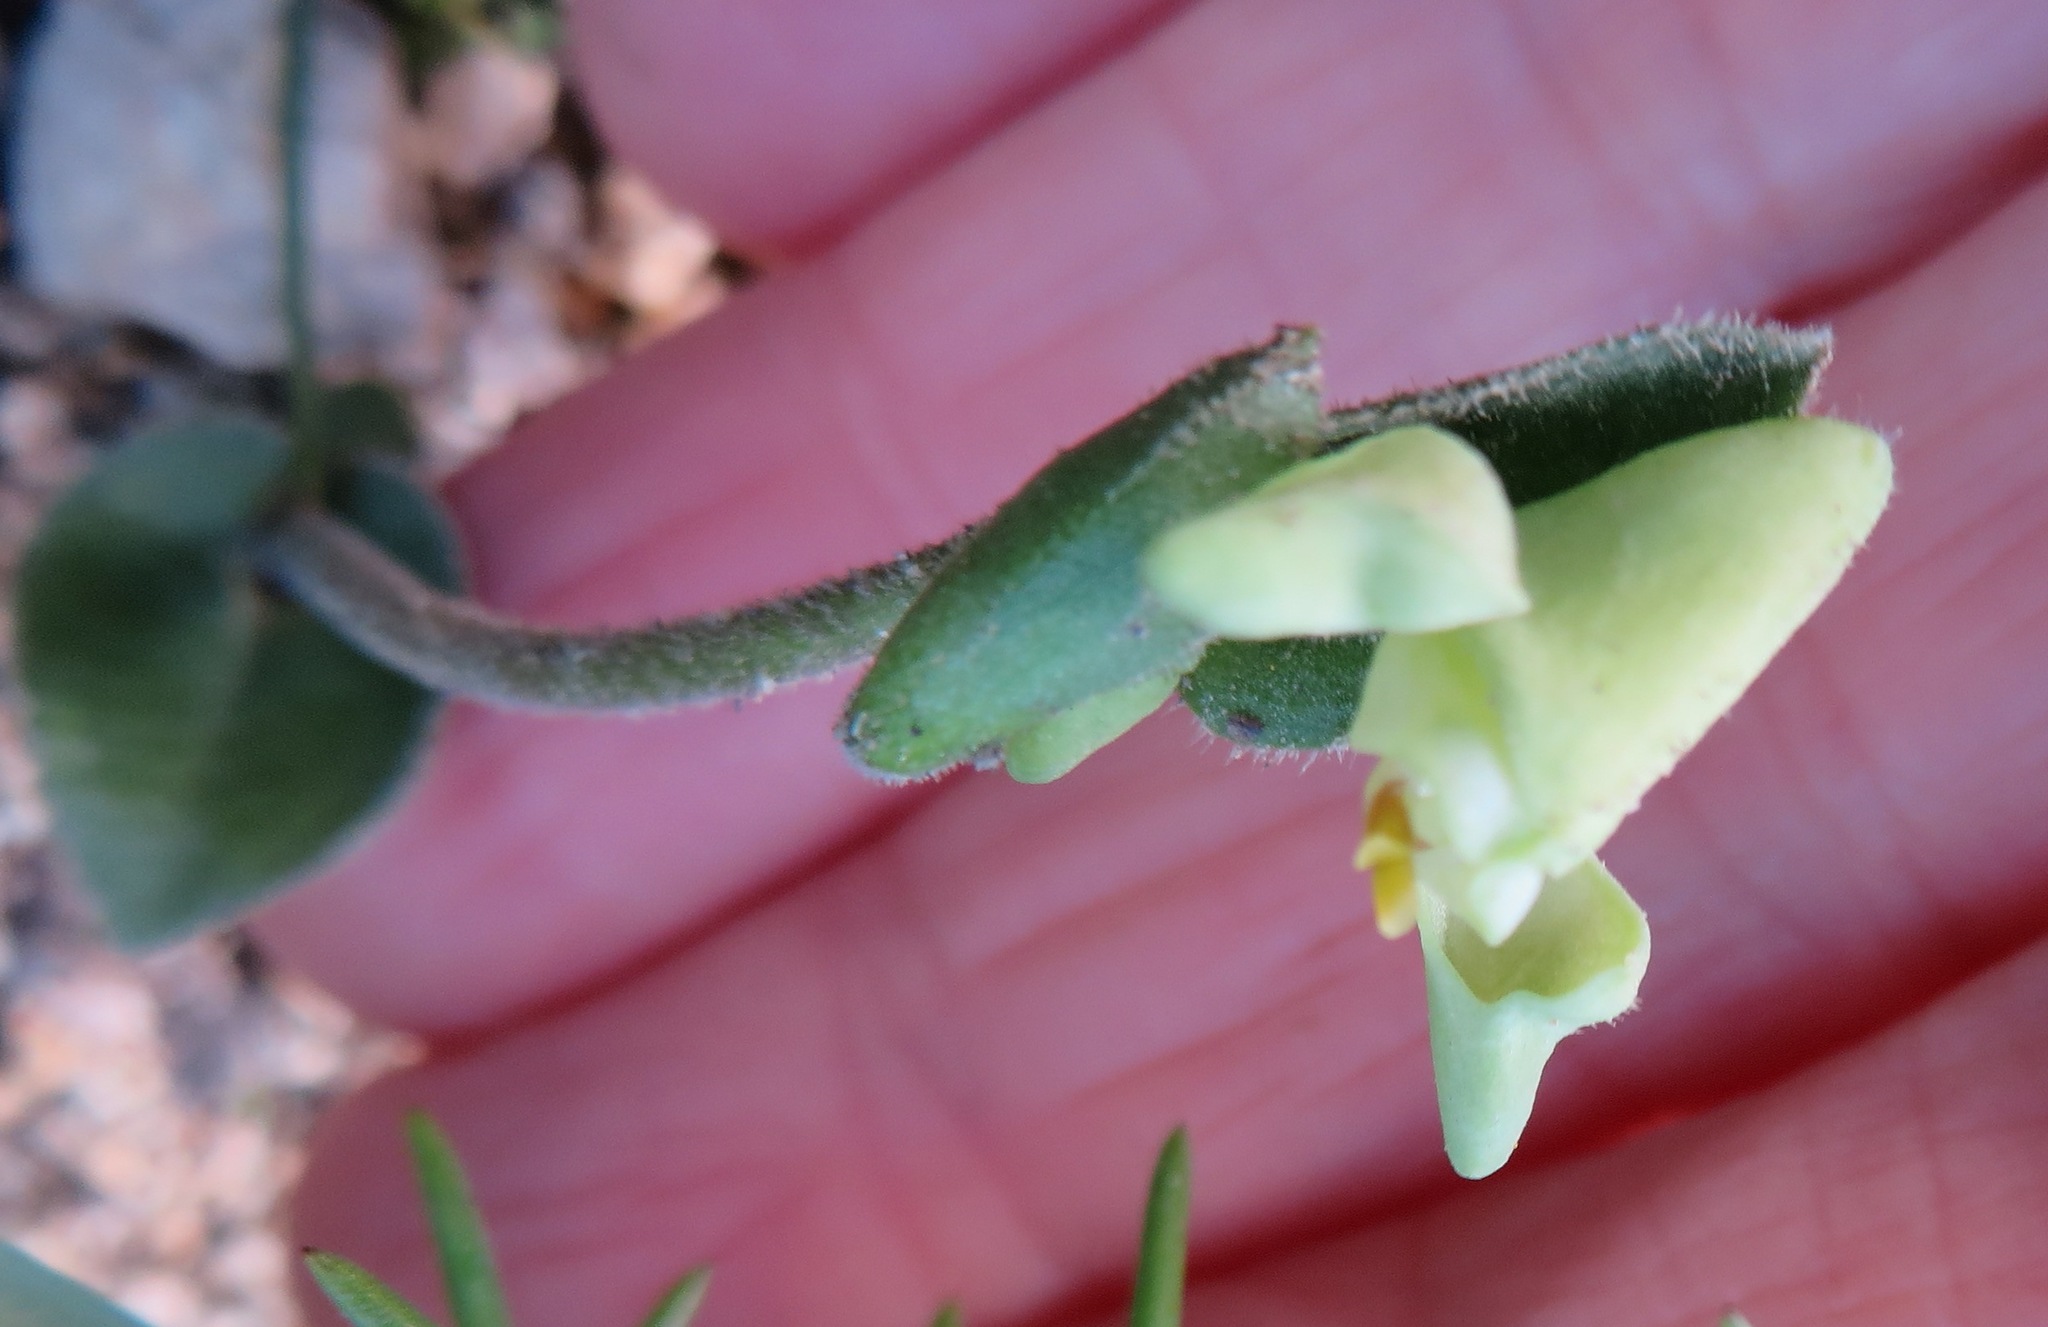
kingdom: Plantae
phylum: Tracheophyta
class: Liliopsida
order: Asparagales
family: Orchidaceae
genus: Disperis
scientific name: Disperis villosa
